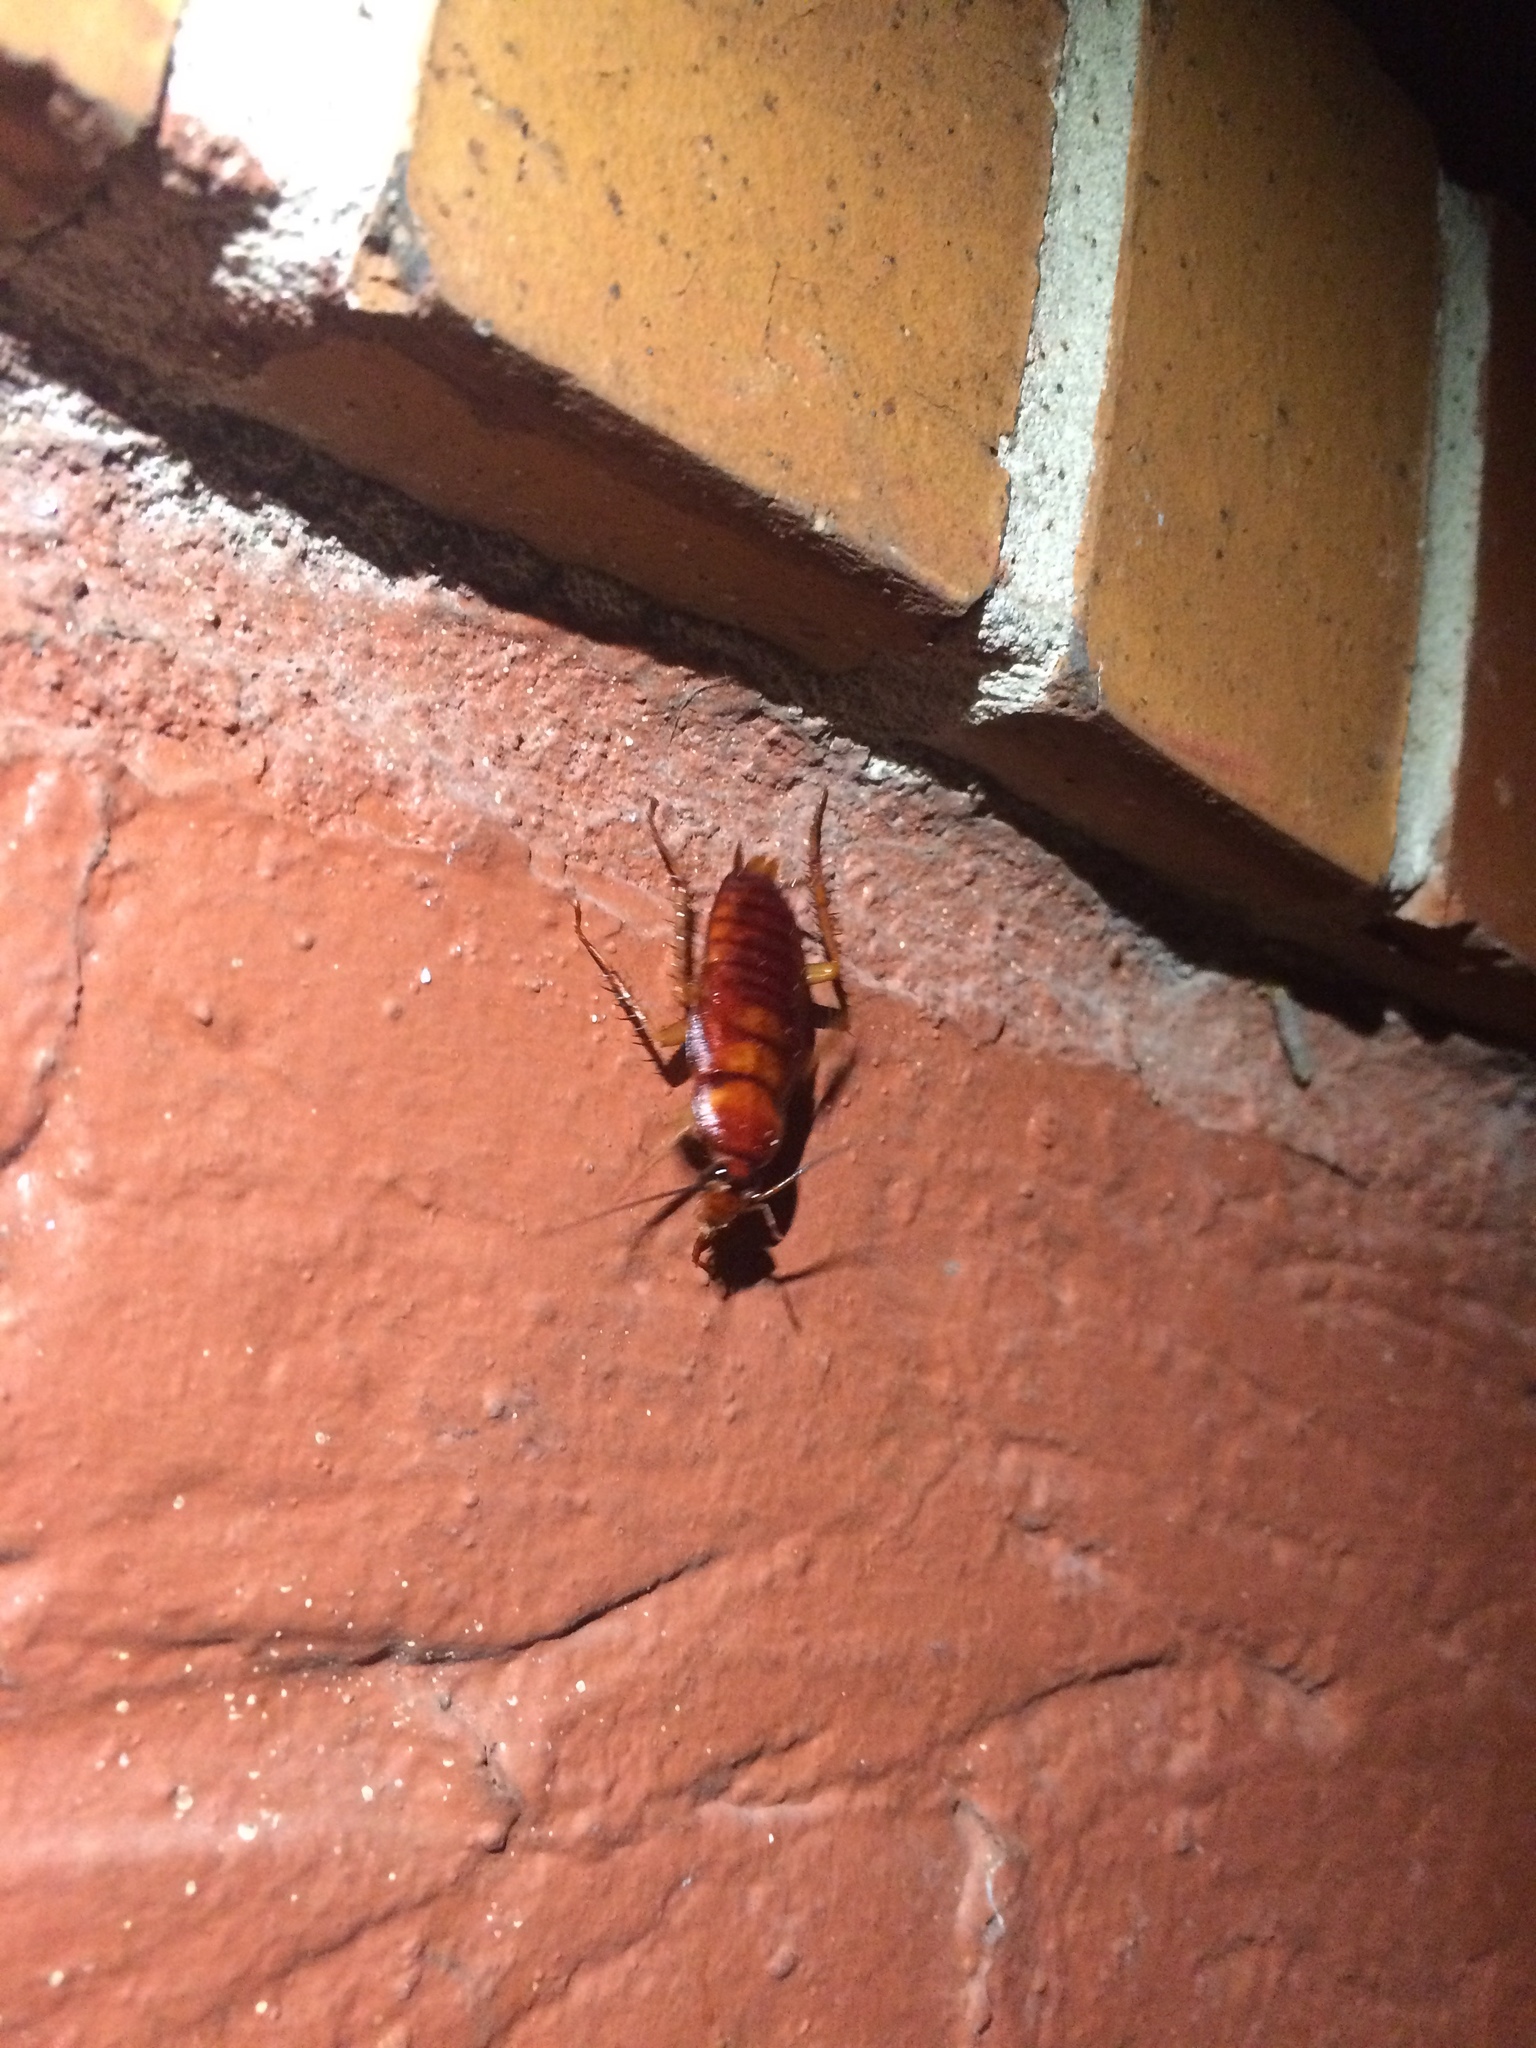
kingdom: Animalia
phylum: Arthropoda
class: Insecta
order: Blattodea
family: Blattidae
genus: Periplaneta
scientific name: Periplaneta americana
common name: American cockroach
